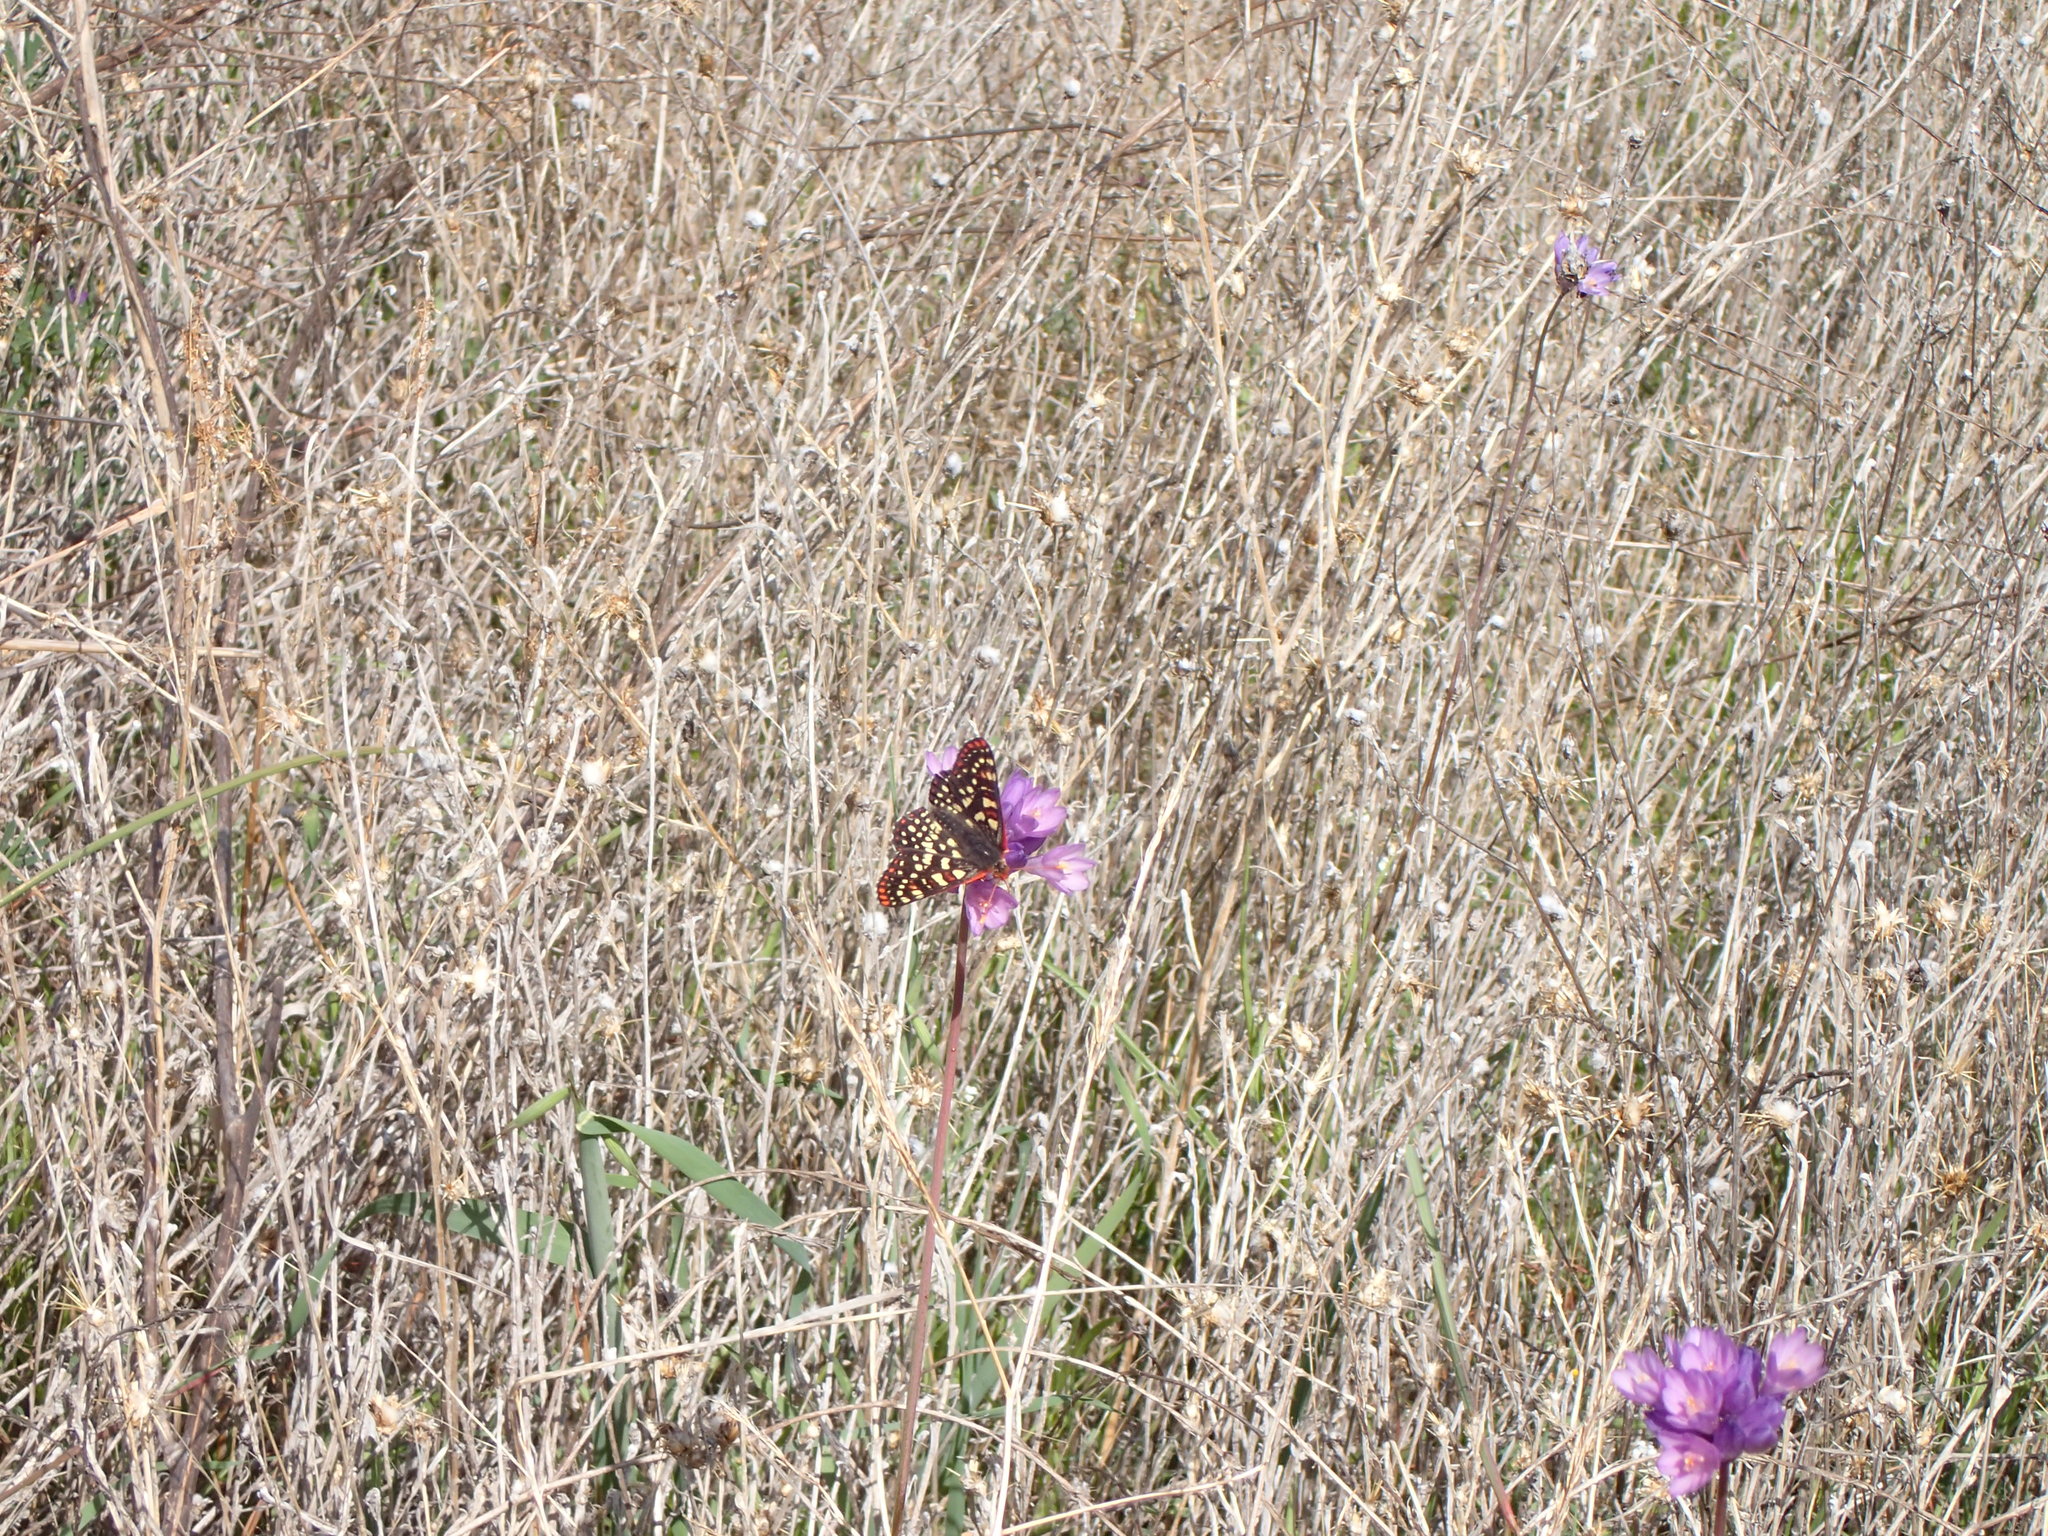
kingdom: Animalia
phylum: Arthropoda
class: Insecta
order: Lepidoptera
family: Nymphalidae
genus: Occidryas
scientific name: Occidryas chalcedona
